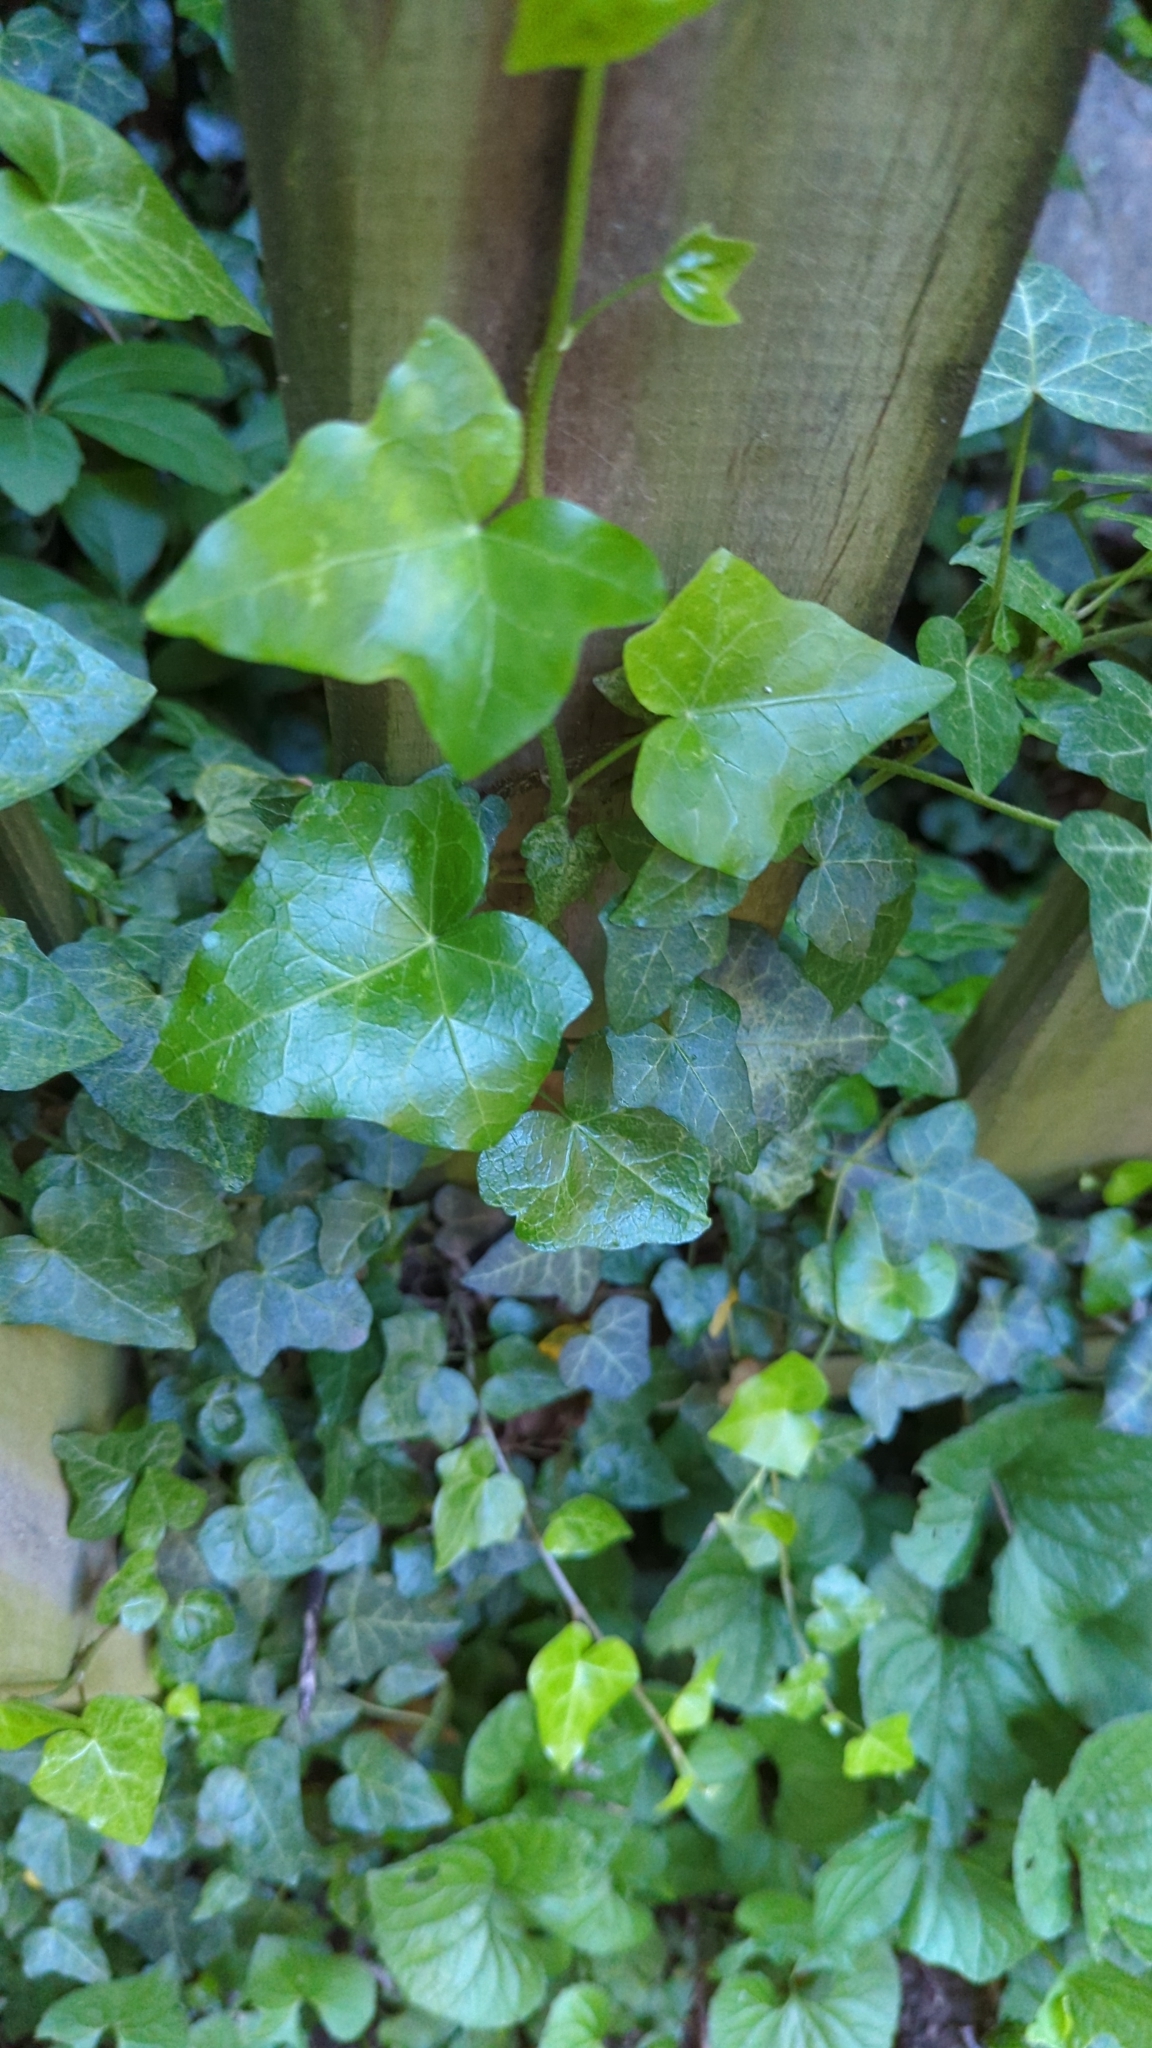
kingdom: Plantae
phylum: Tracheophyta
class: Magnoliopsida
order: Apiales
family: Araliaceae
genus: Hedera
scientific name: Hedera helix
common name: Ivy
